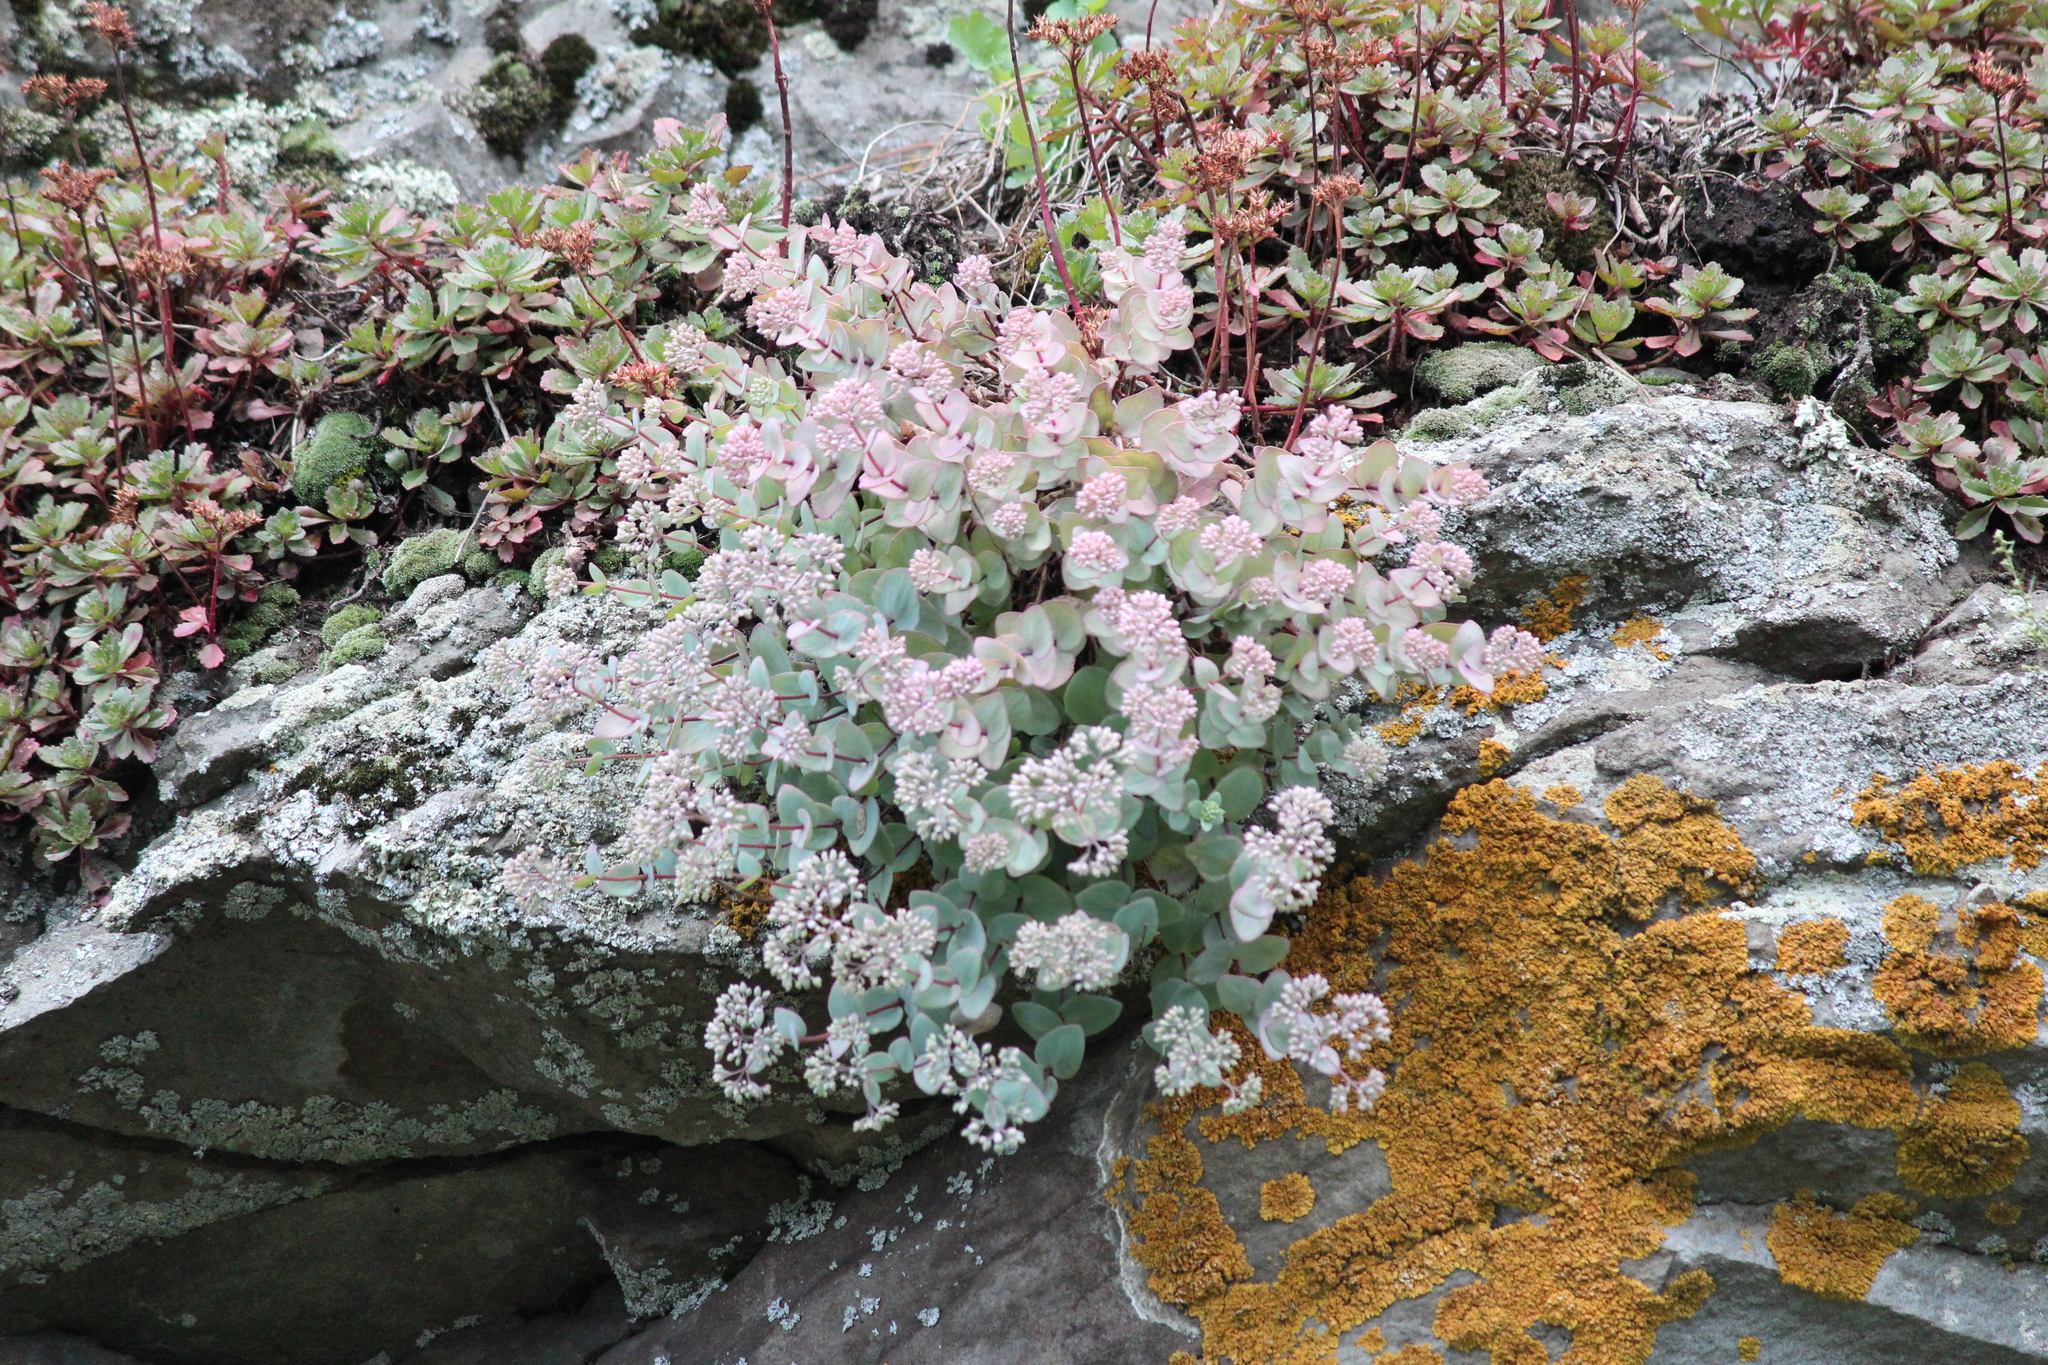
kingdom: Plantae
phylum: Tracheophyta
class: Magnoliopsida
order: Saxifragales
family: Crassulaceae
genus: Hylotelephium
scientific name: Hylotelephium ewersii
